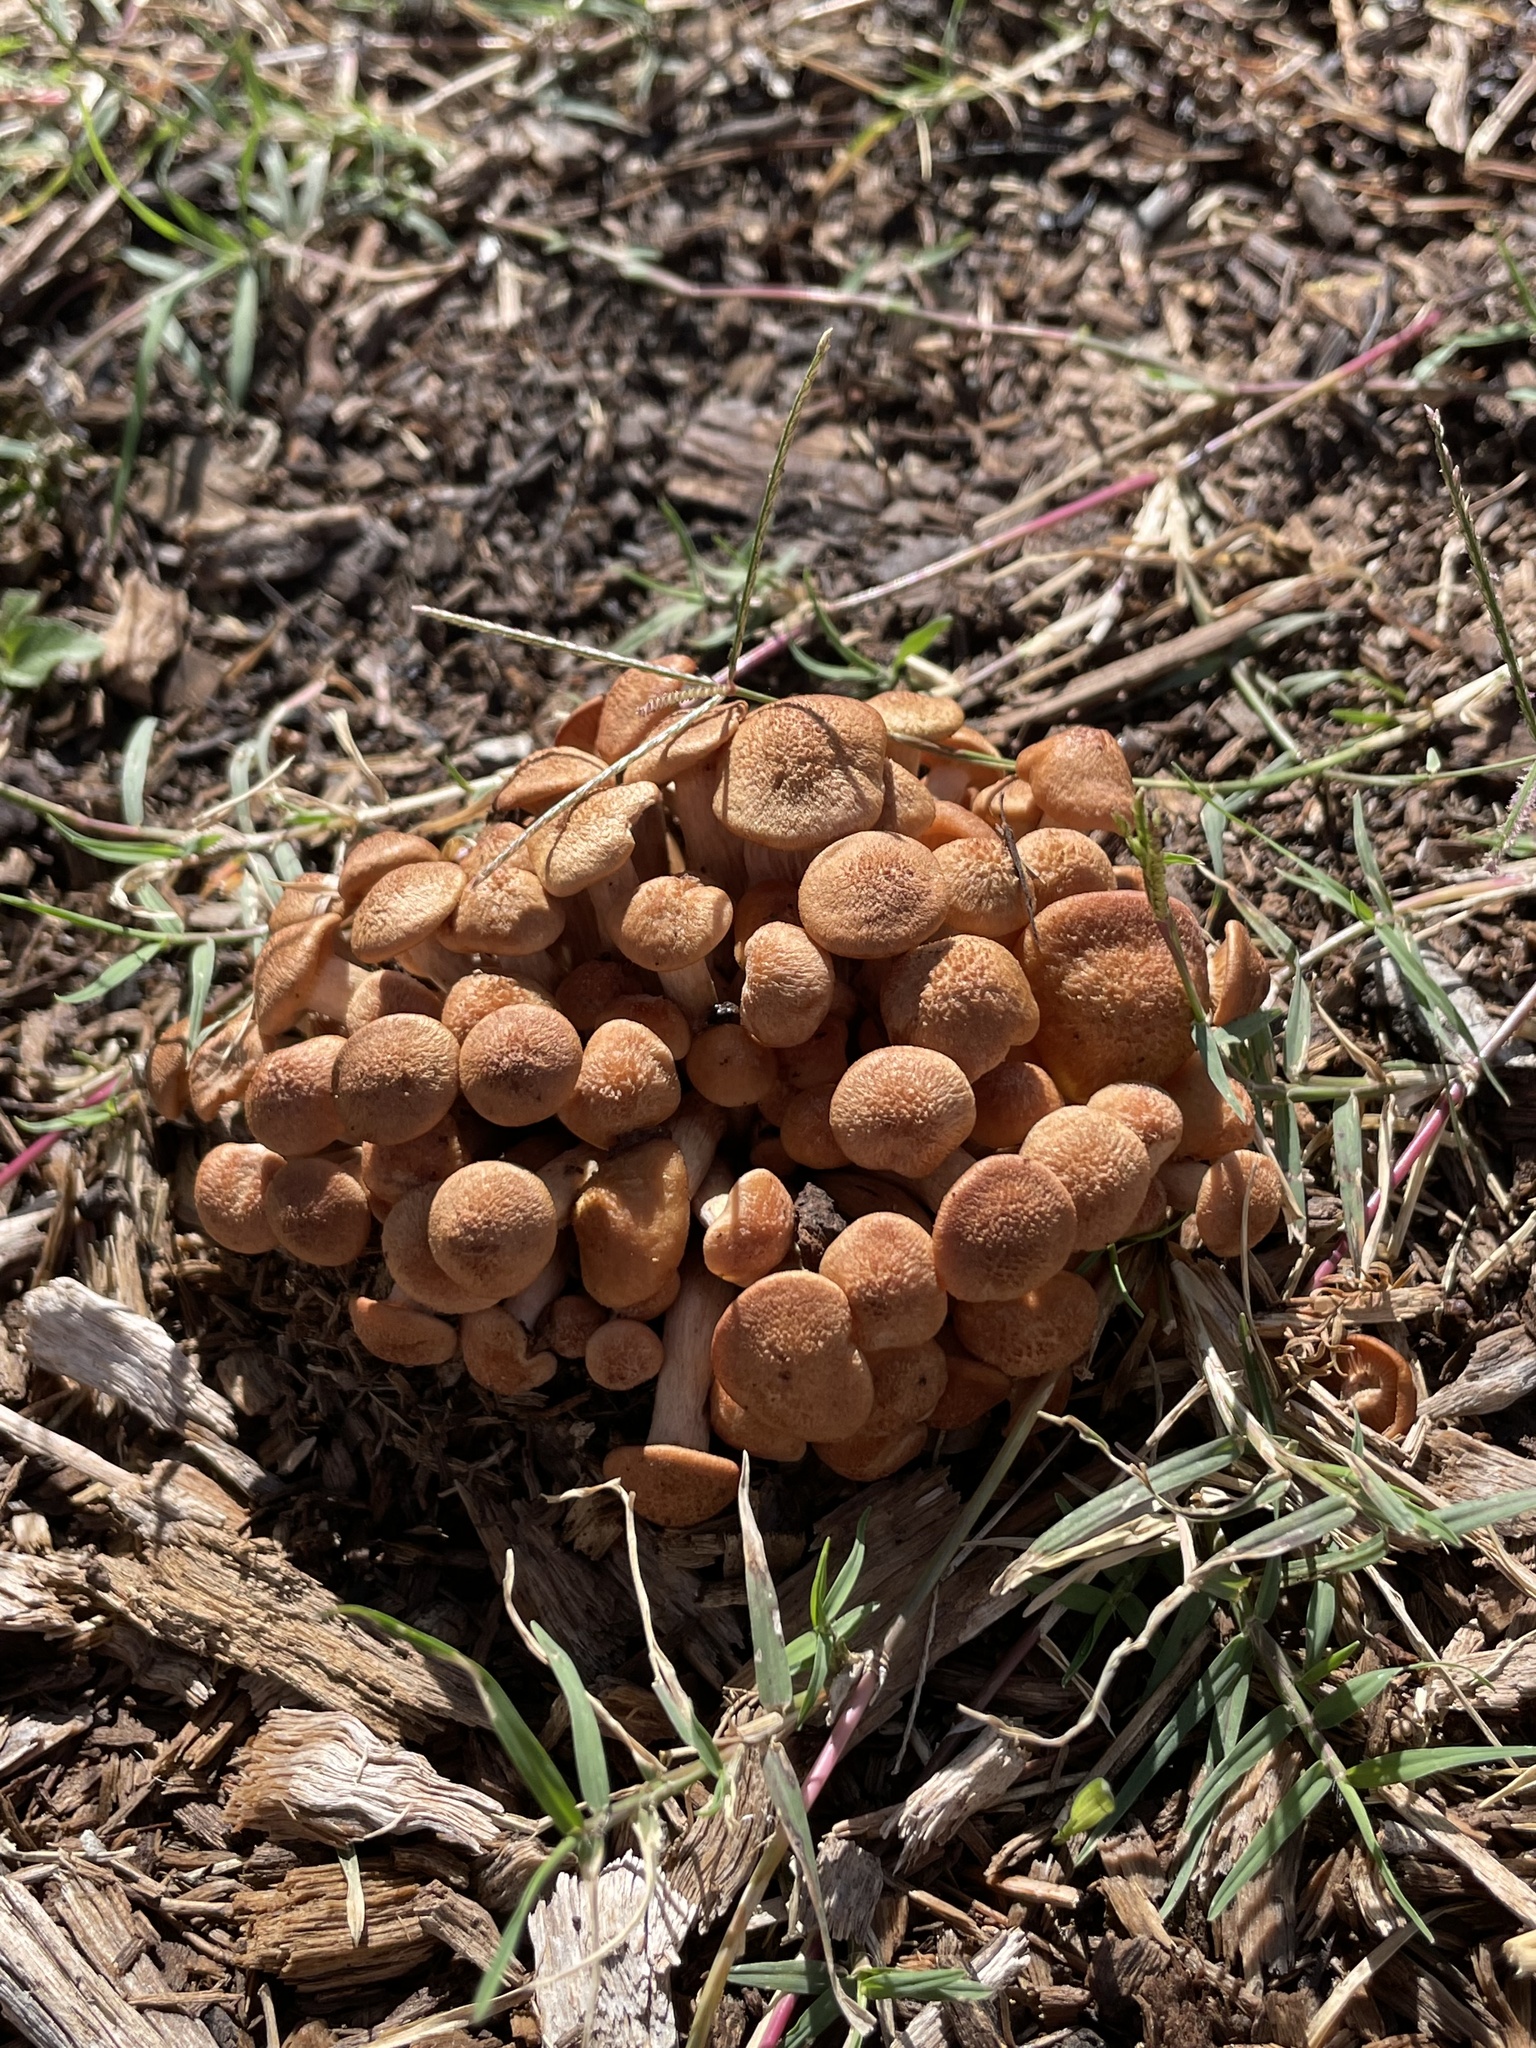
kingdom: Fungi
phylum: Basidiomycota
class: Agaricomycetes
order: Agaricales
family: Physalacriaceae
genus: Desarmillaria
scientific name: Desarmillaria caespitosa
